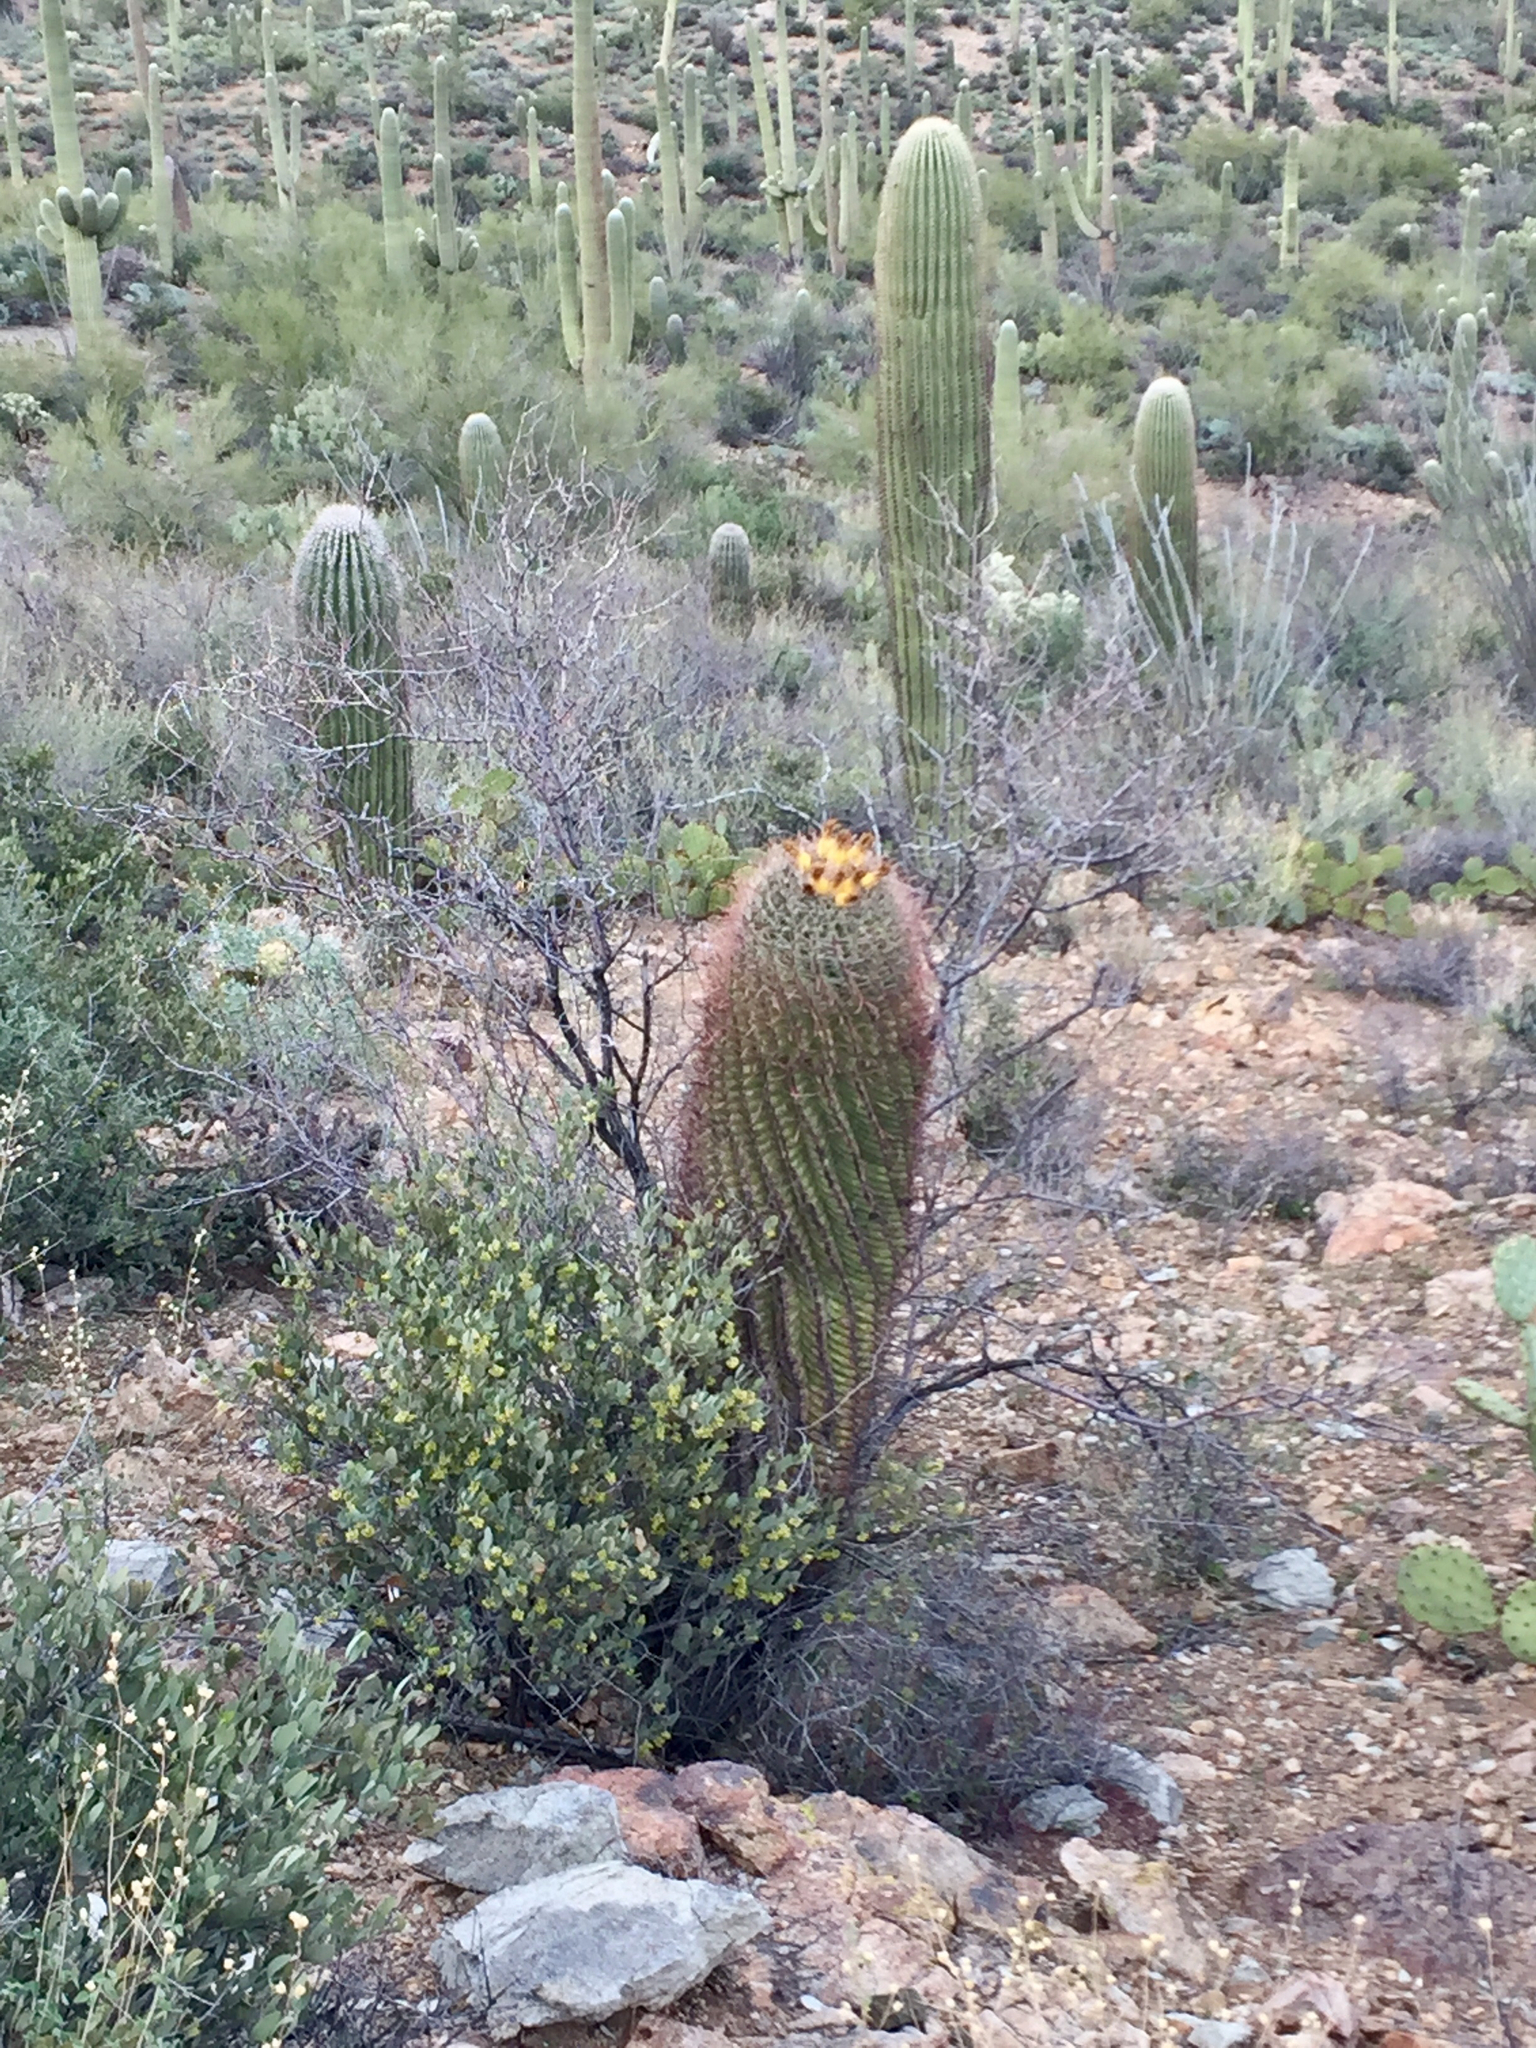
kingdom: Plantae
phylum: Tracheophyta
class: Magnoliopsida
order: Caryophyllales
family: Cactaceae
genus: Ferocactus
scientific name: Ferocactus wislizeni
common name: Candy barrel cactus
